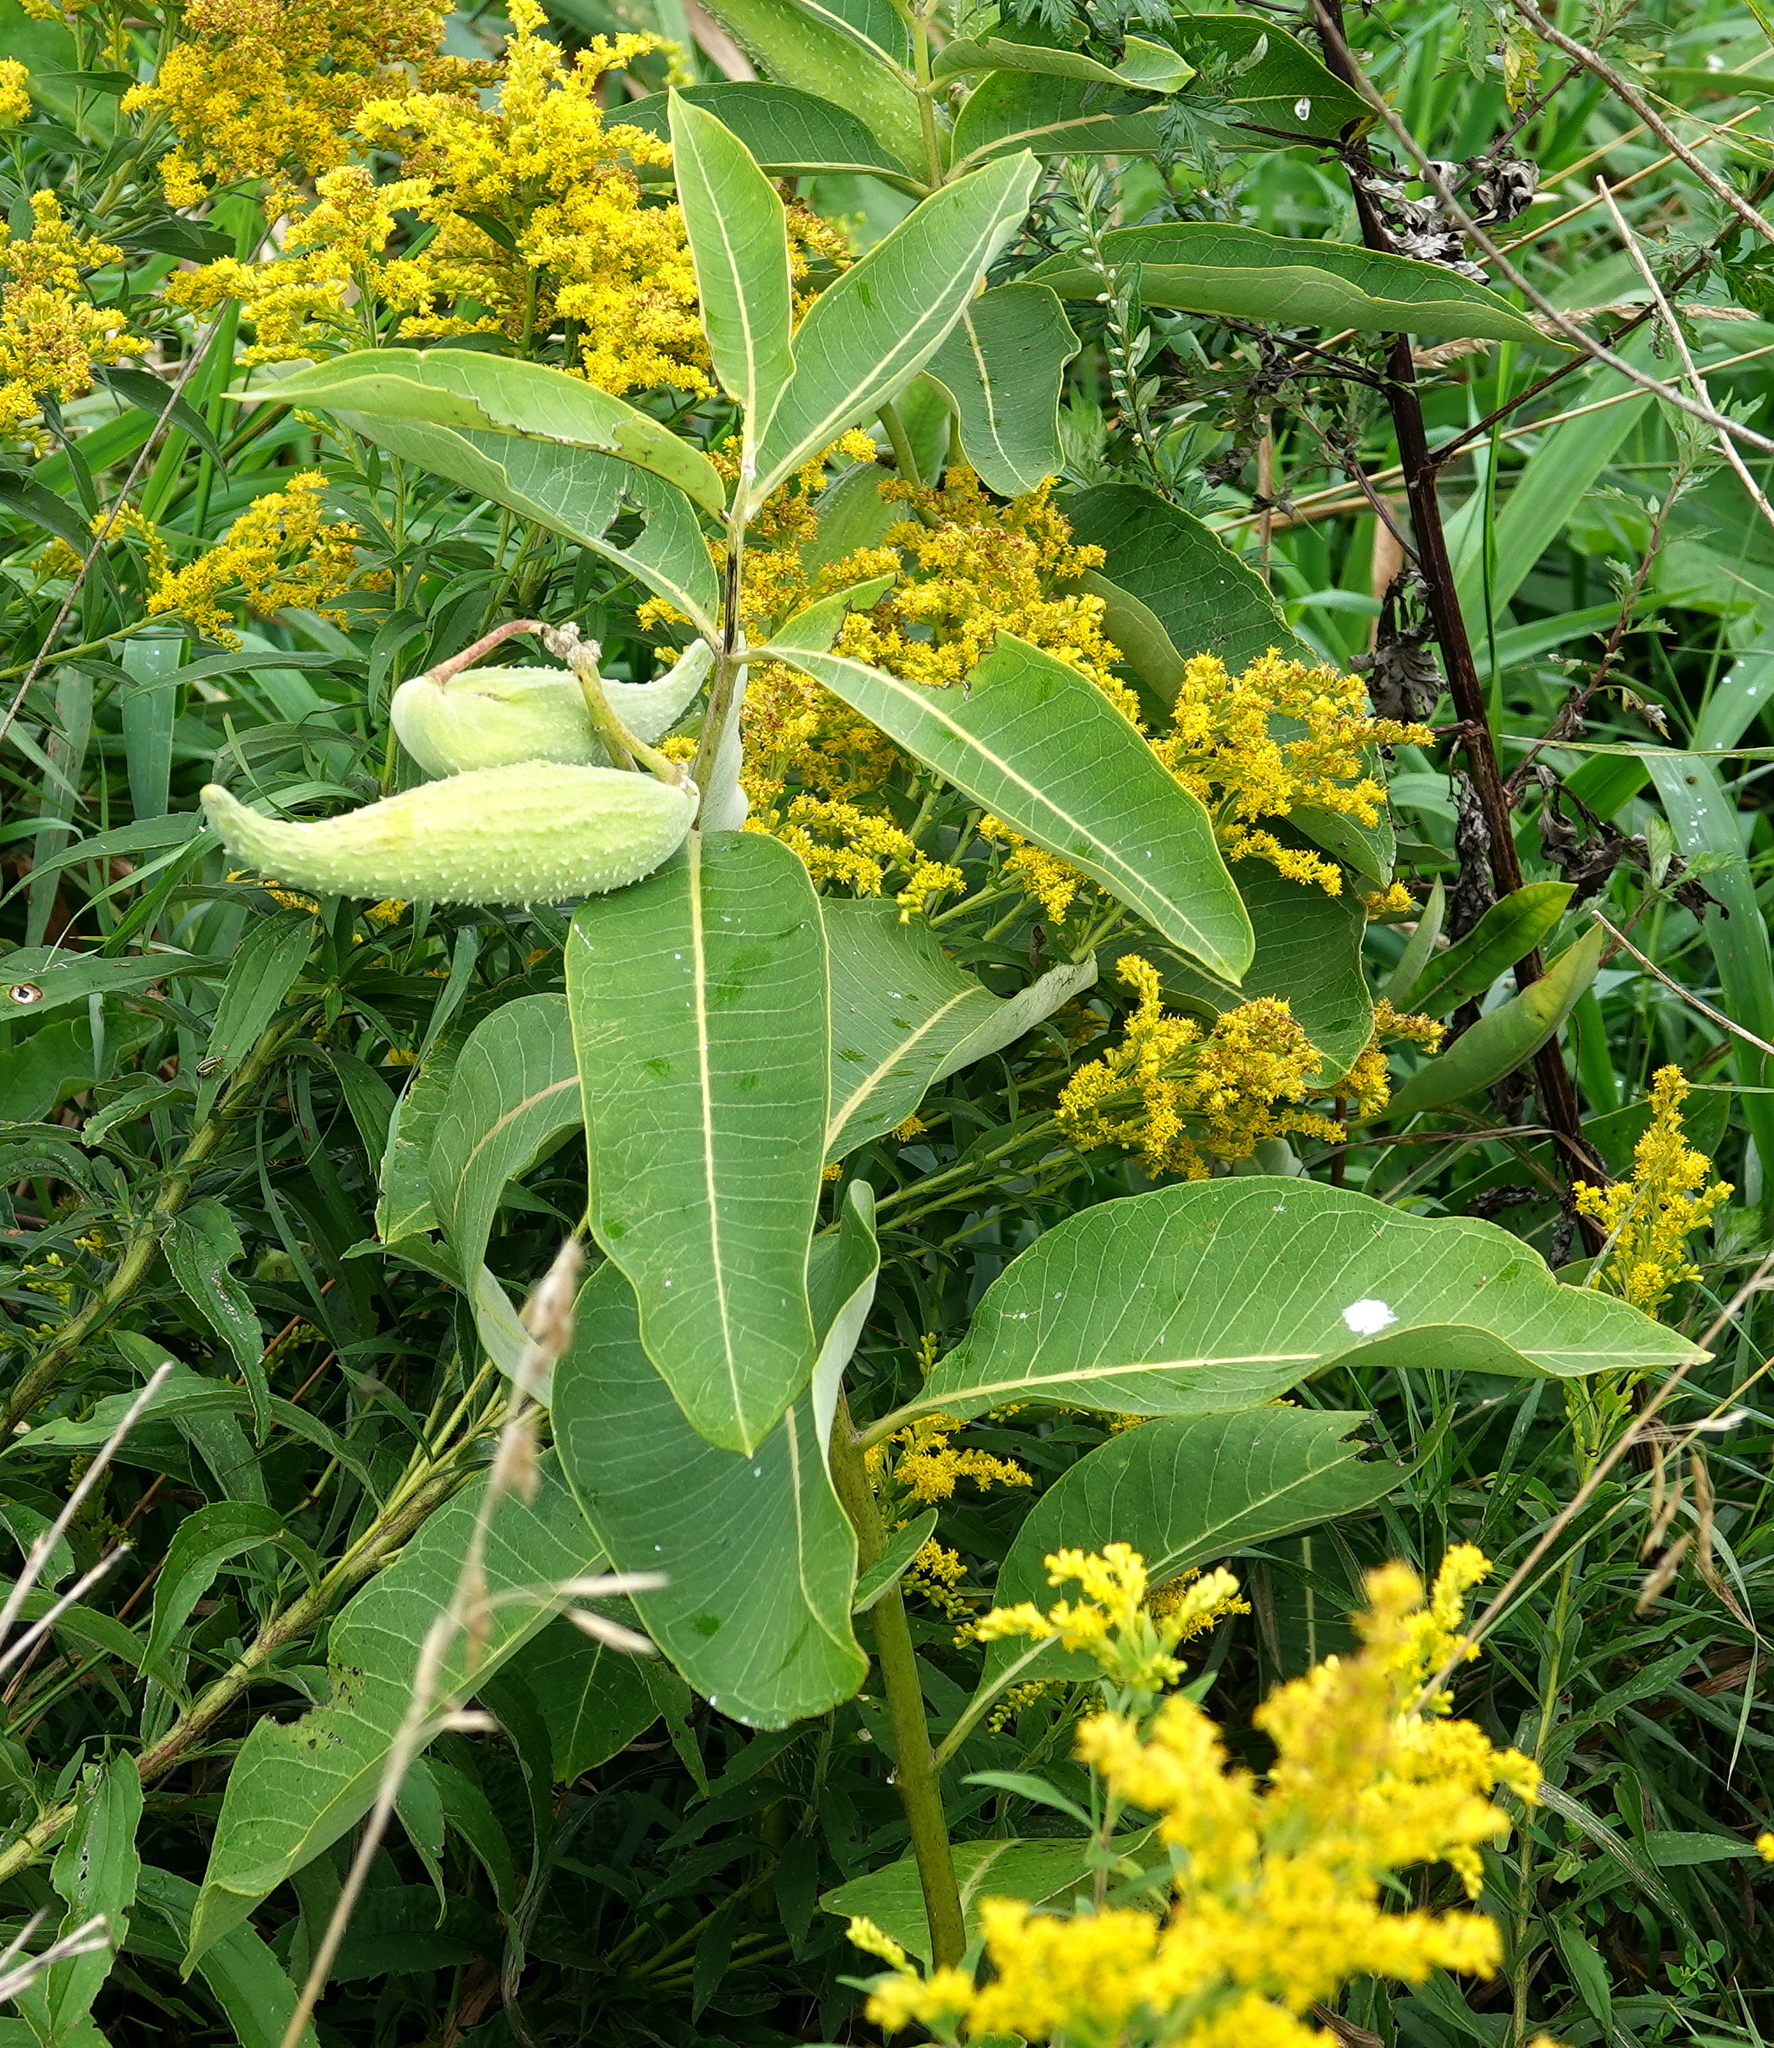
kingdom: Plantae
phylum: Tracheophyta
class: Magnoliopsida
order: Gentianales
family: Apocynaceae
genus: Asclepias
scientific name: Asclepias syriaca
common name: Common milkweed
